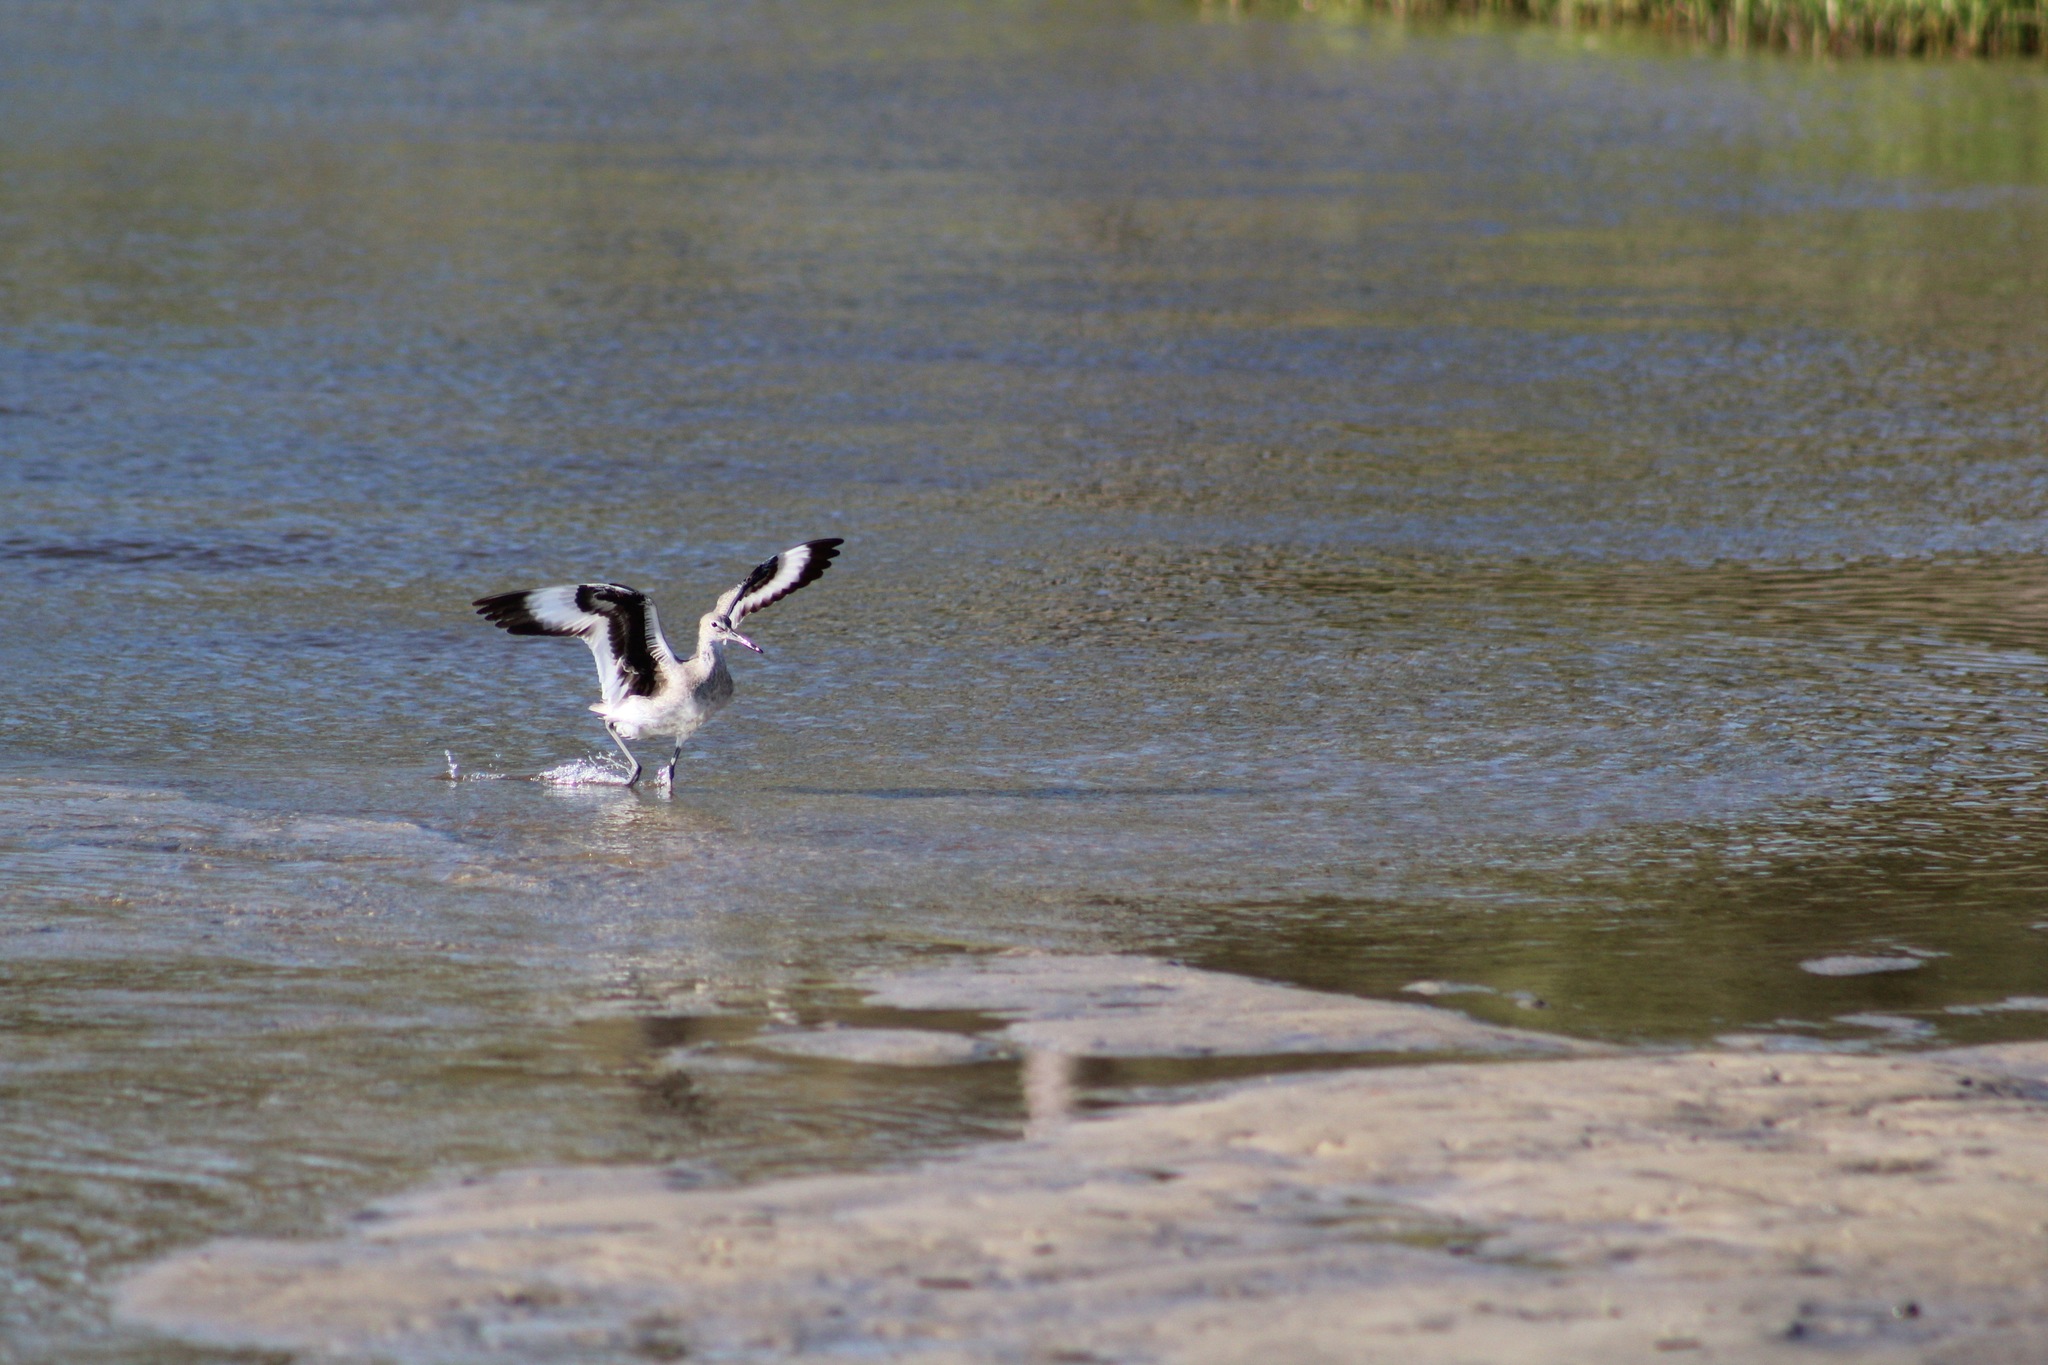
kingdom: Animalia
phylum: Chordata
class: Aves
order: Charadriiformes
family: Scolopacidae
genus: Tringa
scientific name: Tringa semipalmata
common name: Willet
